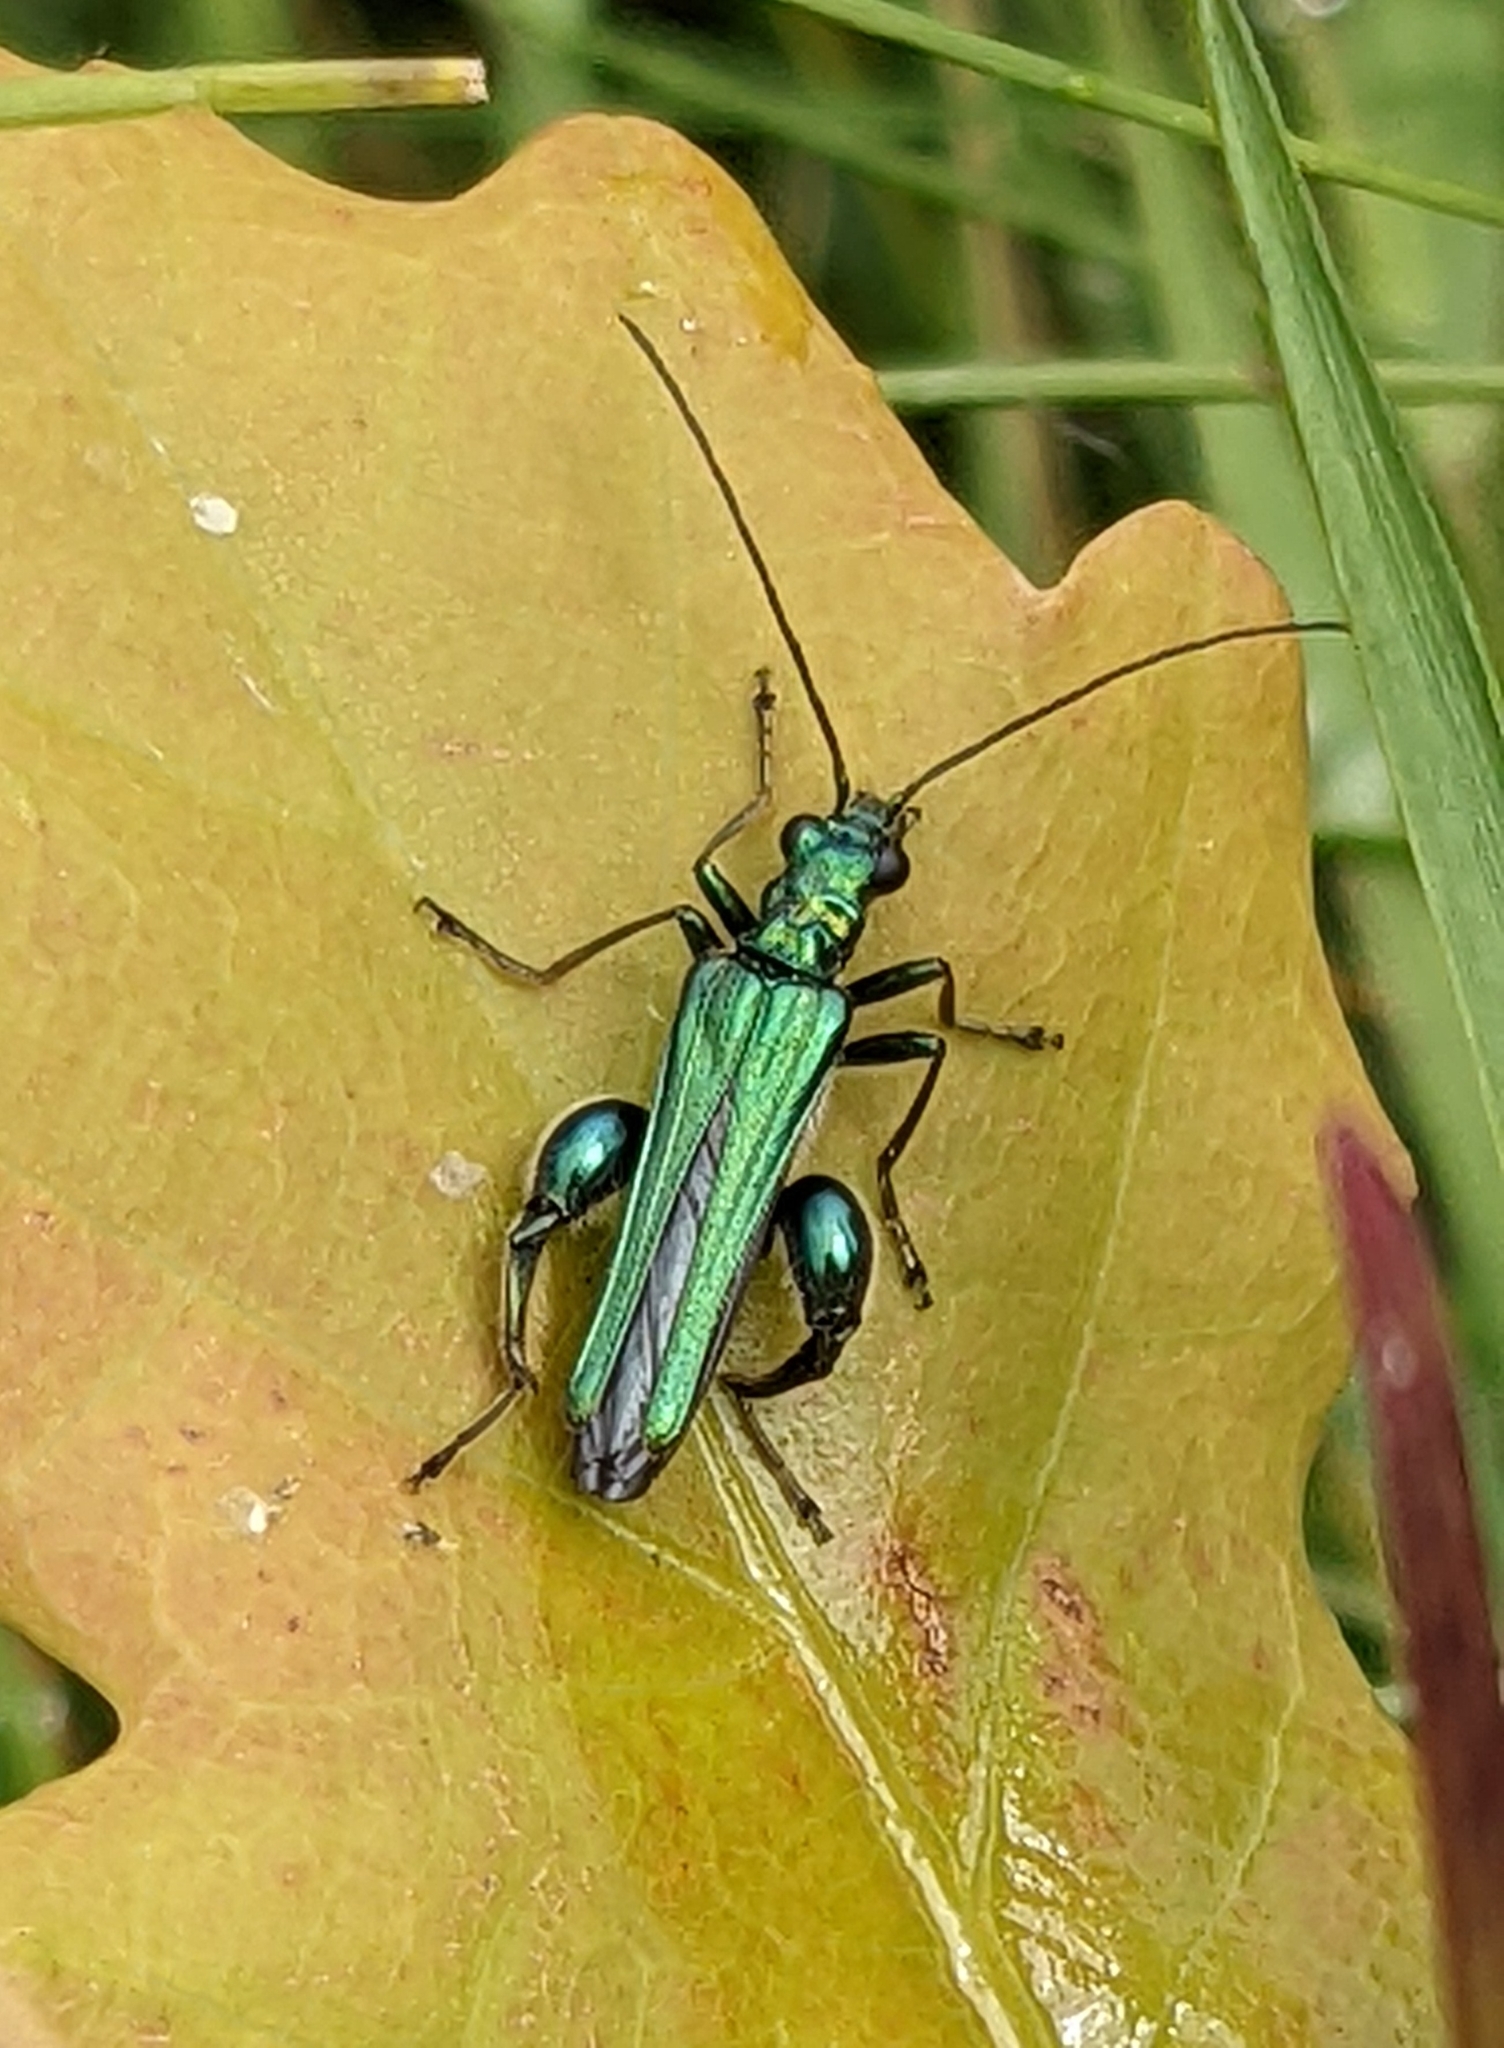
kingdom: Animalia
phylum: Arthropoda
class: Insecta
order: Coleoptera
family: Oedemeridae
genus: Oedemera
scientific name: Oedemera nobilis
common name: Swollen-thighed beetle
